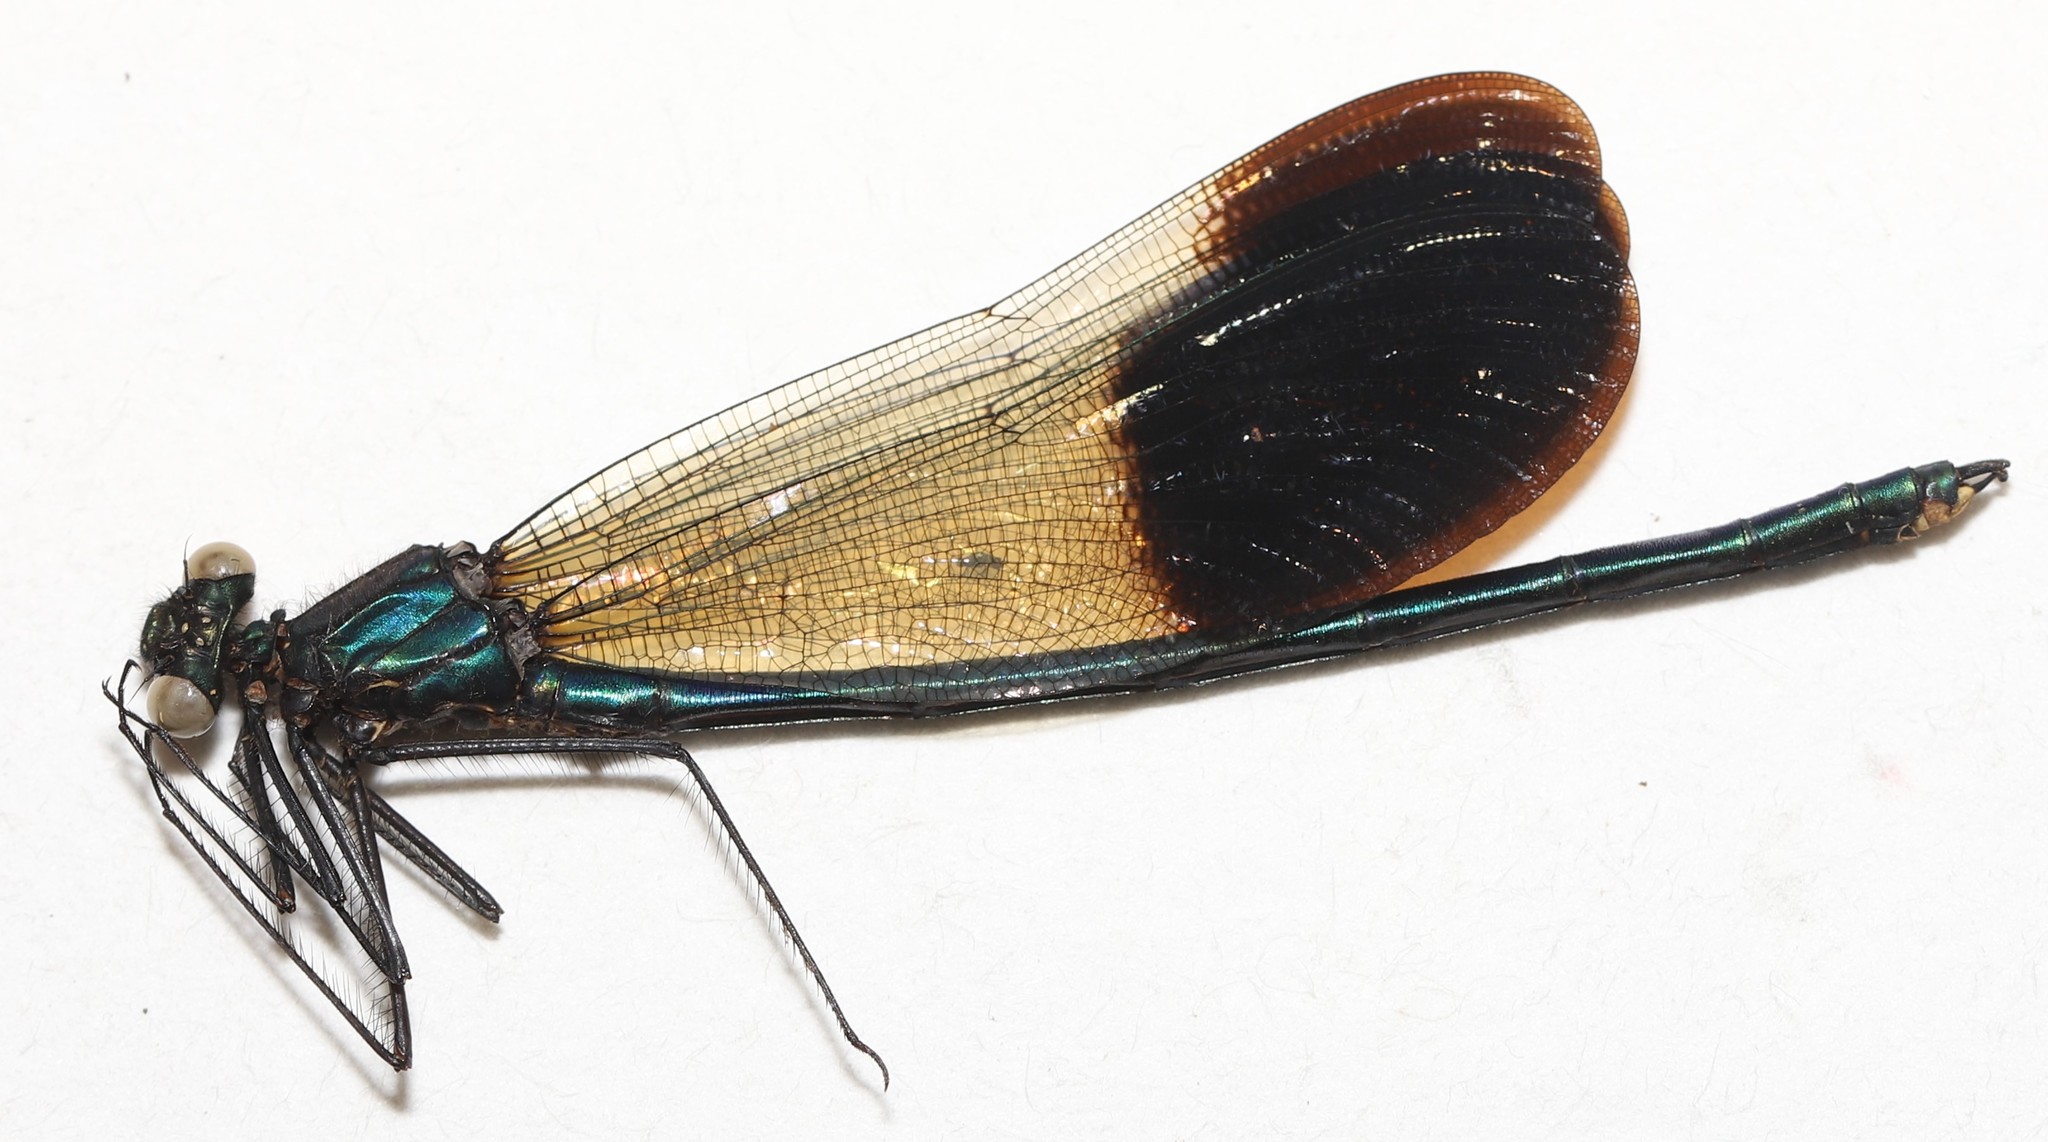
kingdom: Animalia
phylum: Arthropoda
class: Insecta
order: Odonata
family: Calopterygidae
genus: Calopteryx
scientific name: Calopteryx aequabilis
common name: River jewelwing
